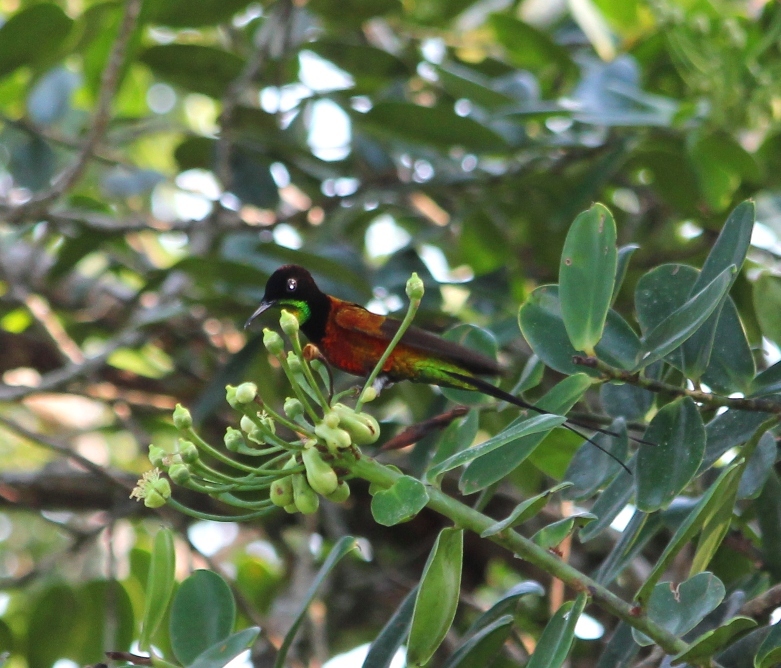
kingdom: Animalia
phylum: Chordata
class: Aves
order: Apodiformes
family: Trochilidae
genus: Topaza
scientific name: Topaza pyra
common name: Fiery topaz
